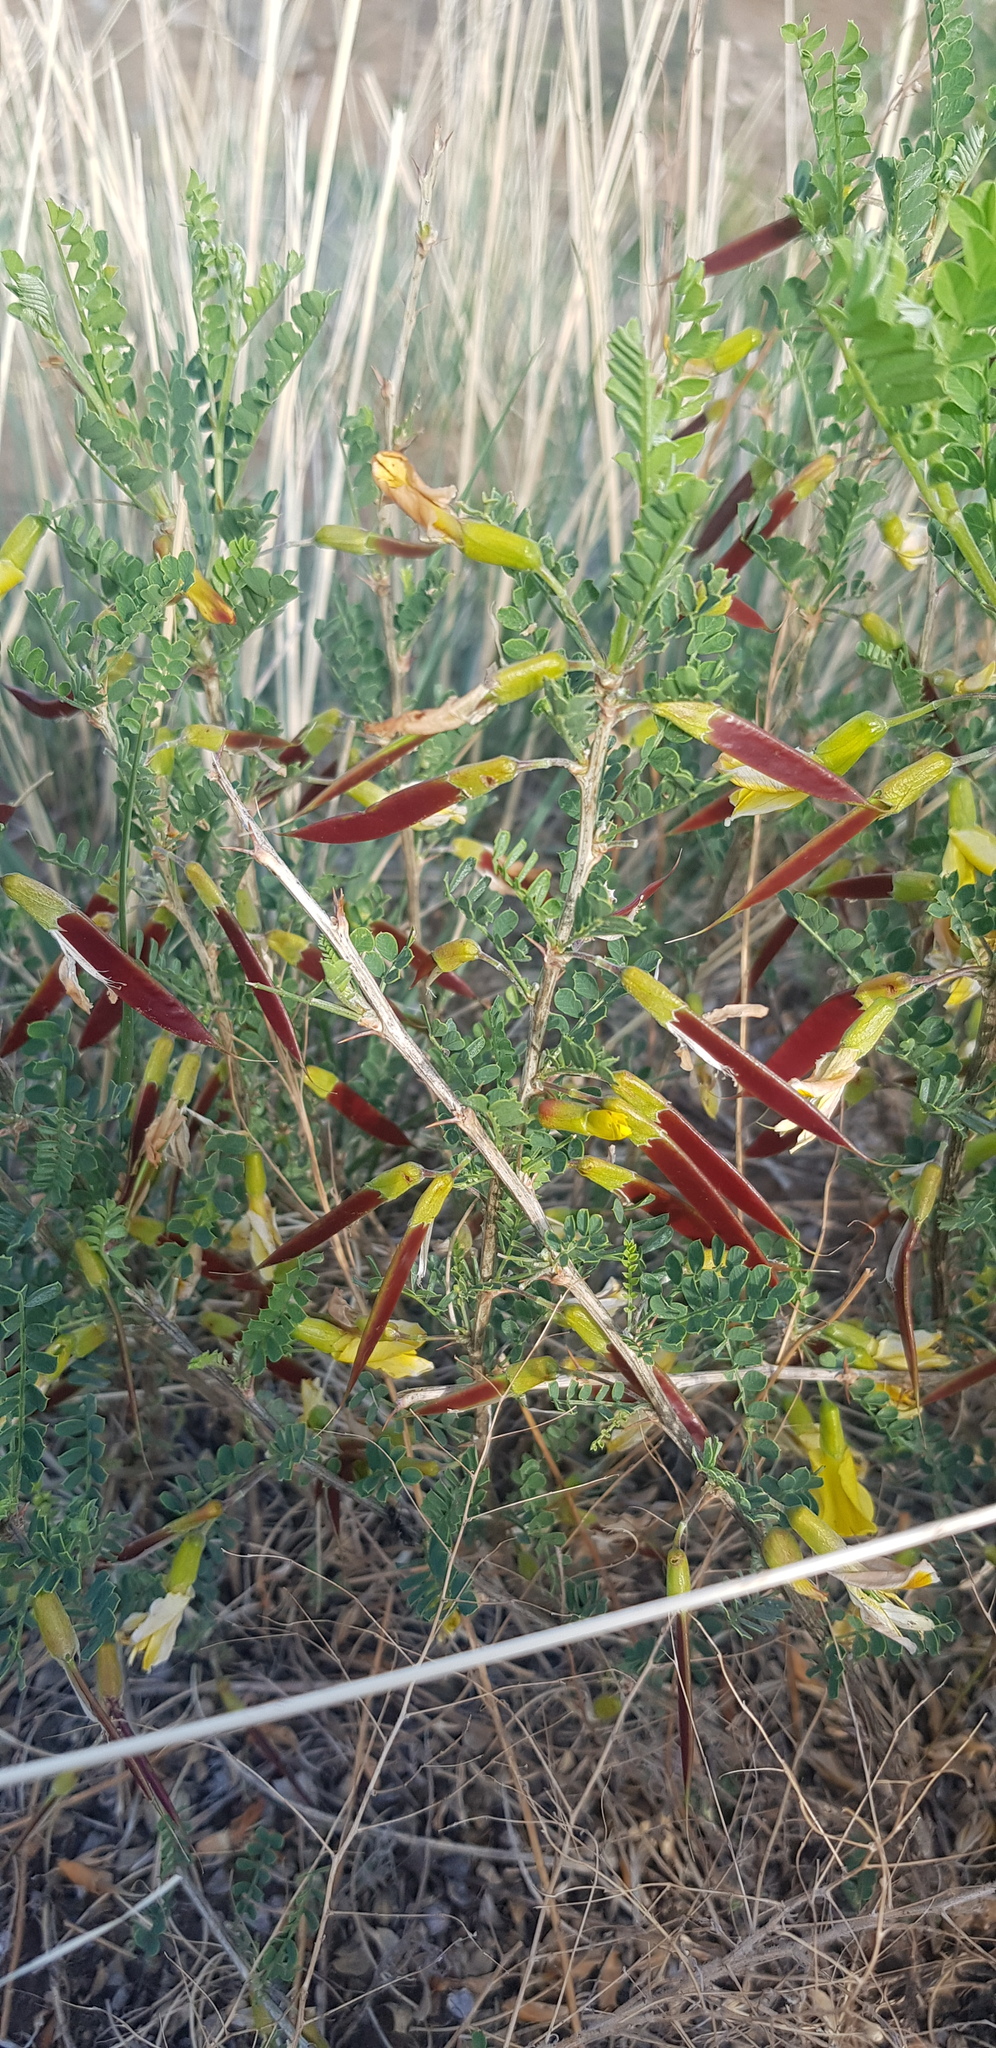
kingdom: Plantae
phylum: Tracheophyta
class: Magnoliopsida
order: Fabales
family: Fabaceae
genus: Caragana
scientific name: Caragana microphylla
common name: Littleleaf peashrub
